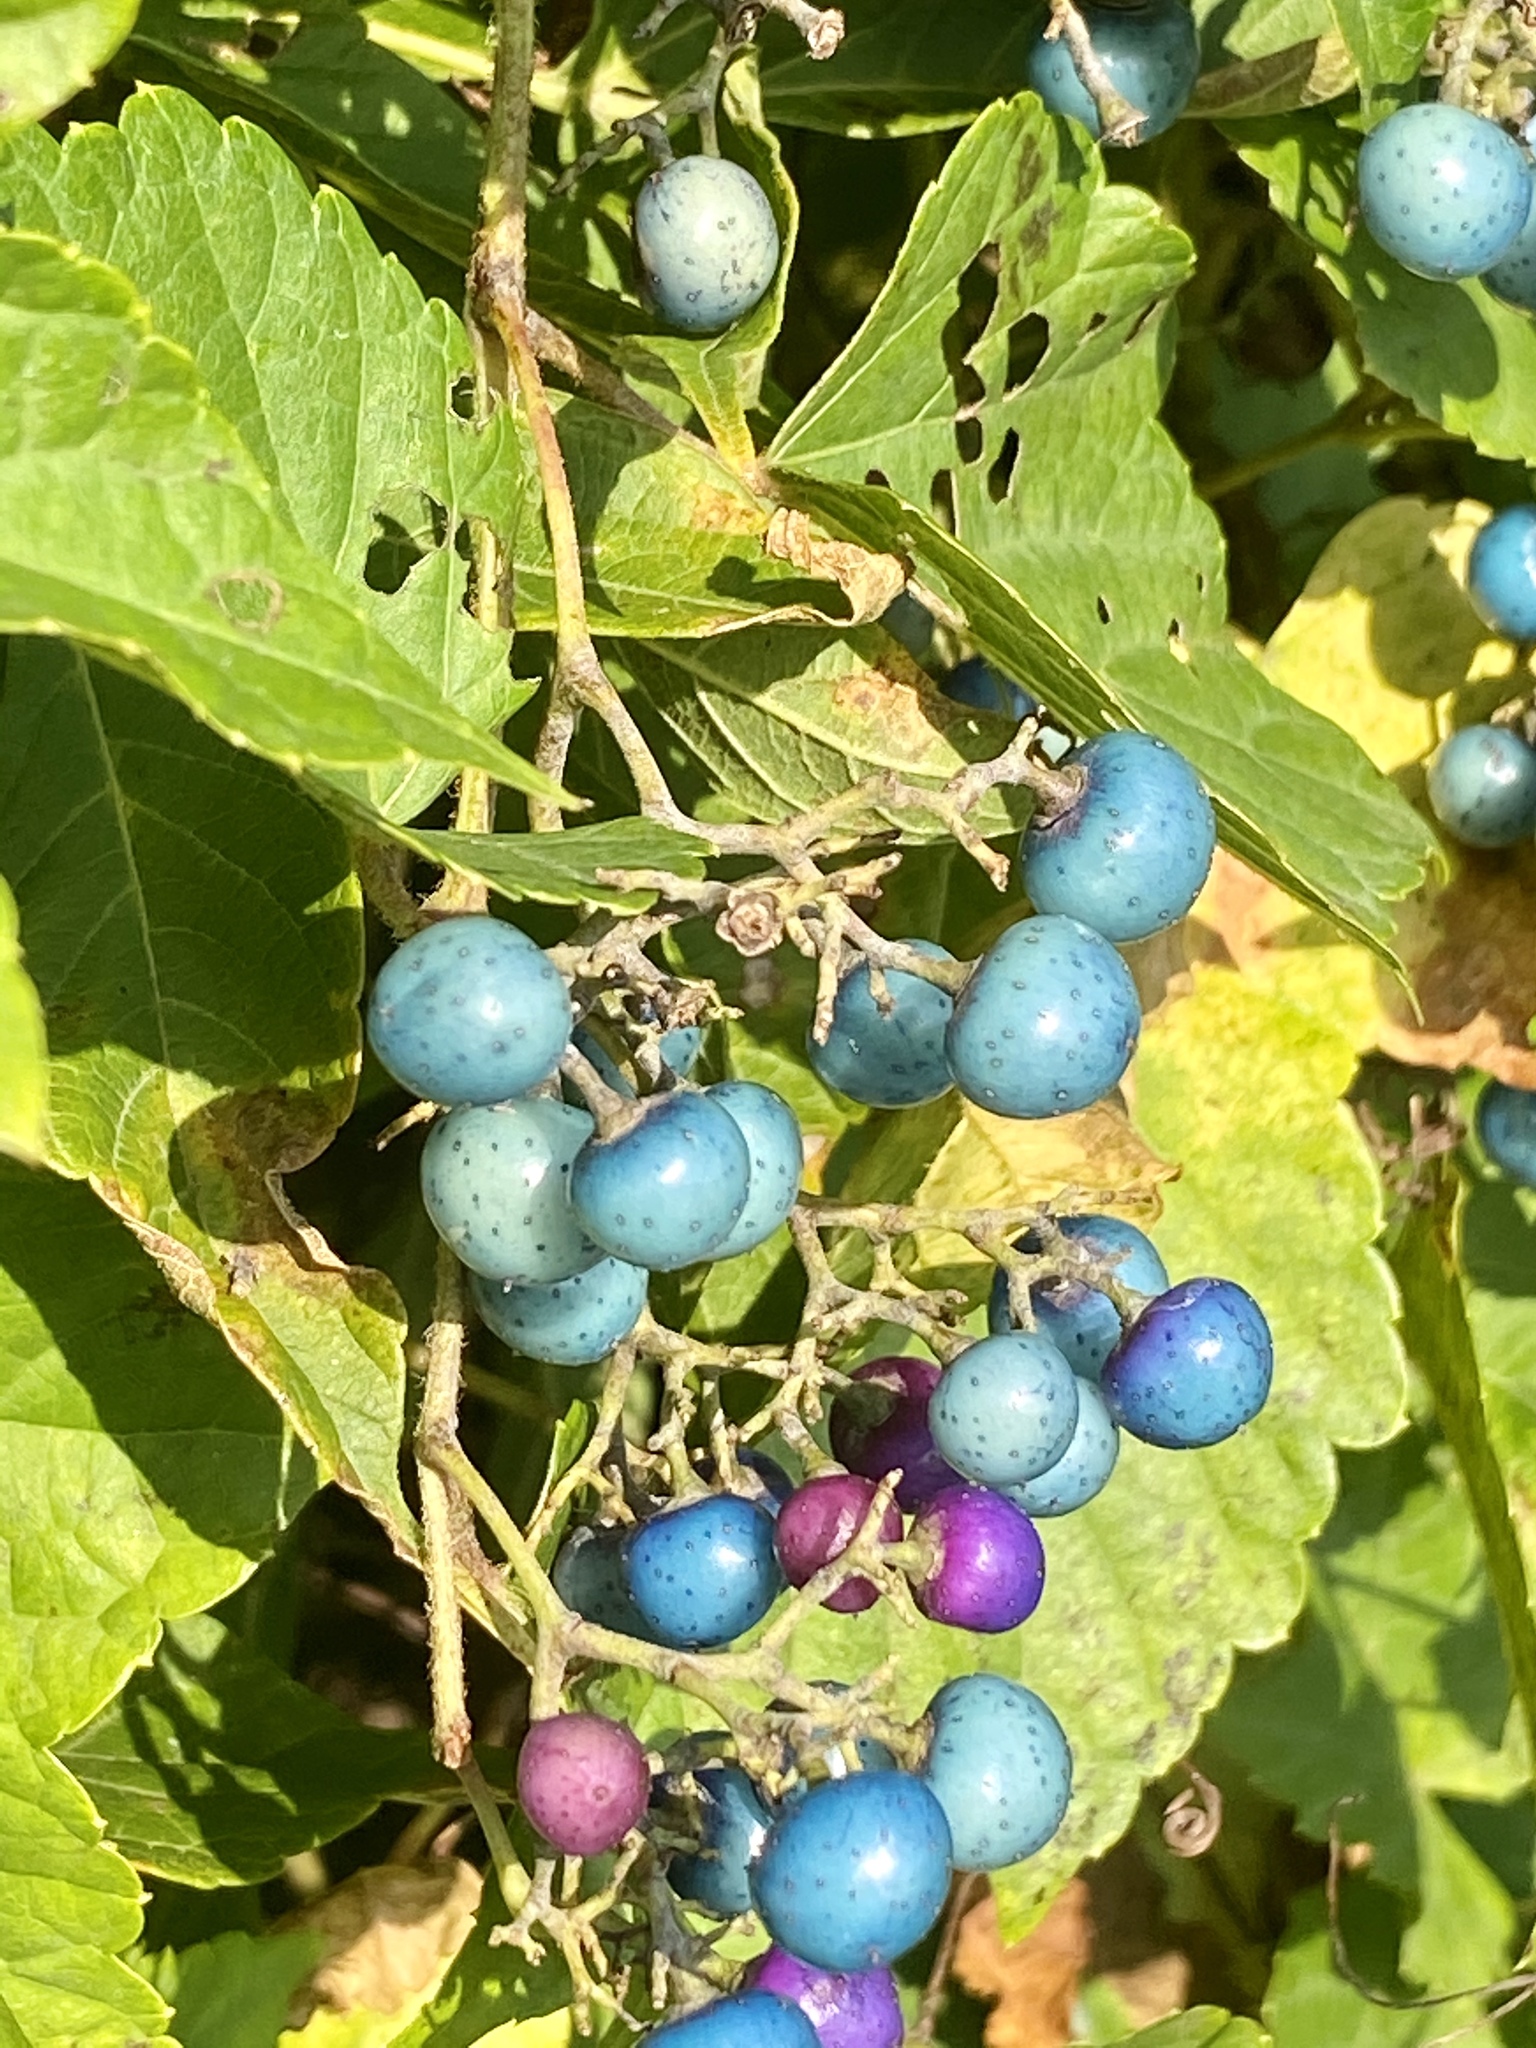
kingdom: Plantae
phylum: Tracheophyta
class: Magnoliopsida
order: Vitales
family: Vitaceae
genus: Ampelopsis
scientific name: Ampelopsis glandulosa
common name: Amur peppervine
